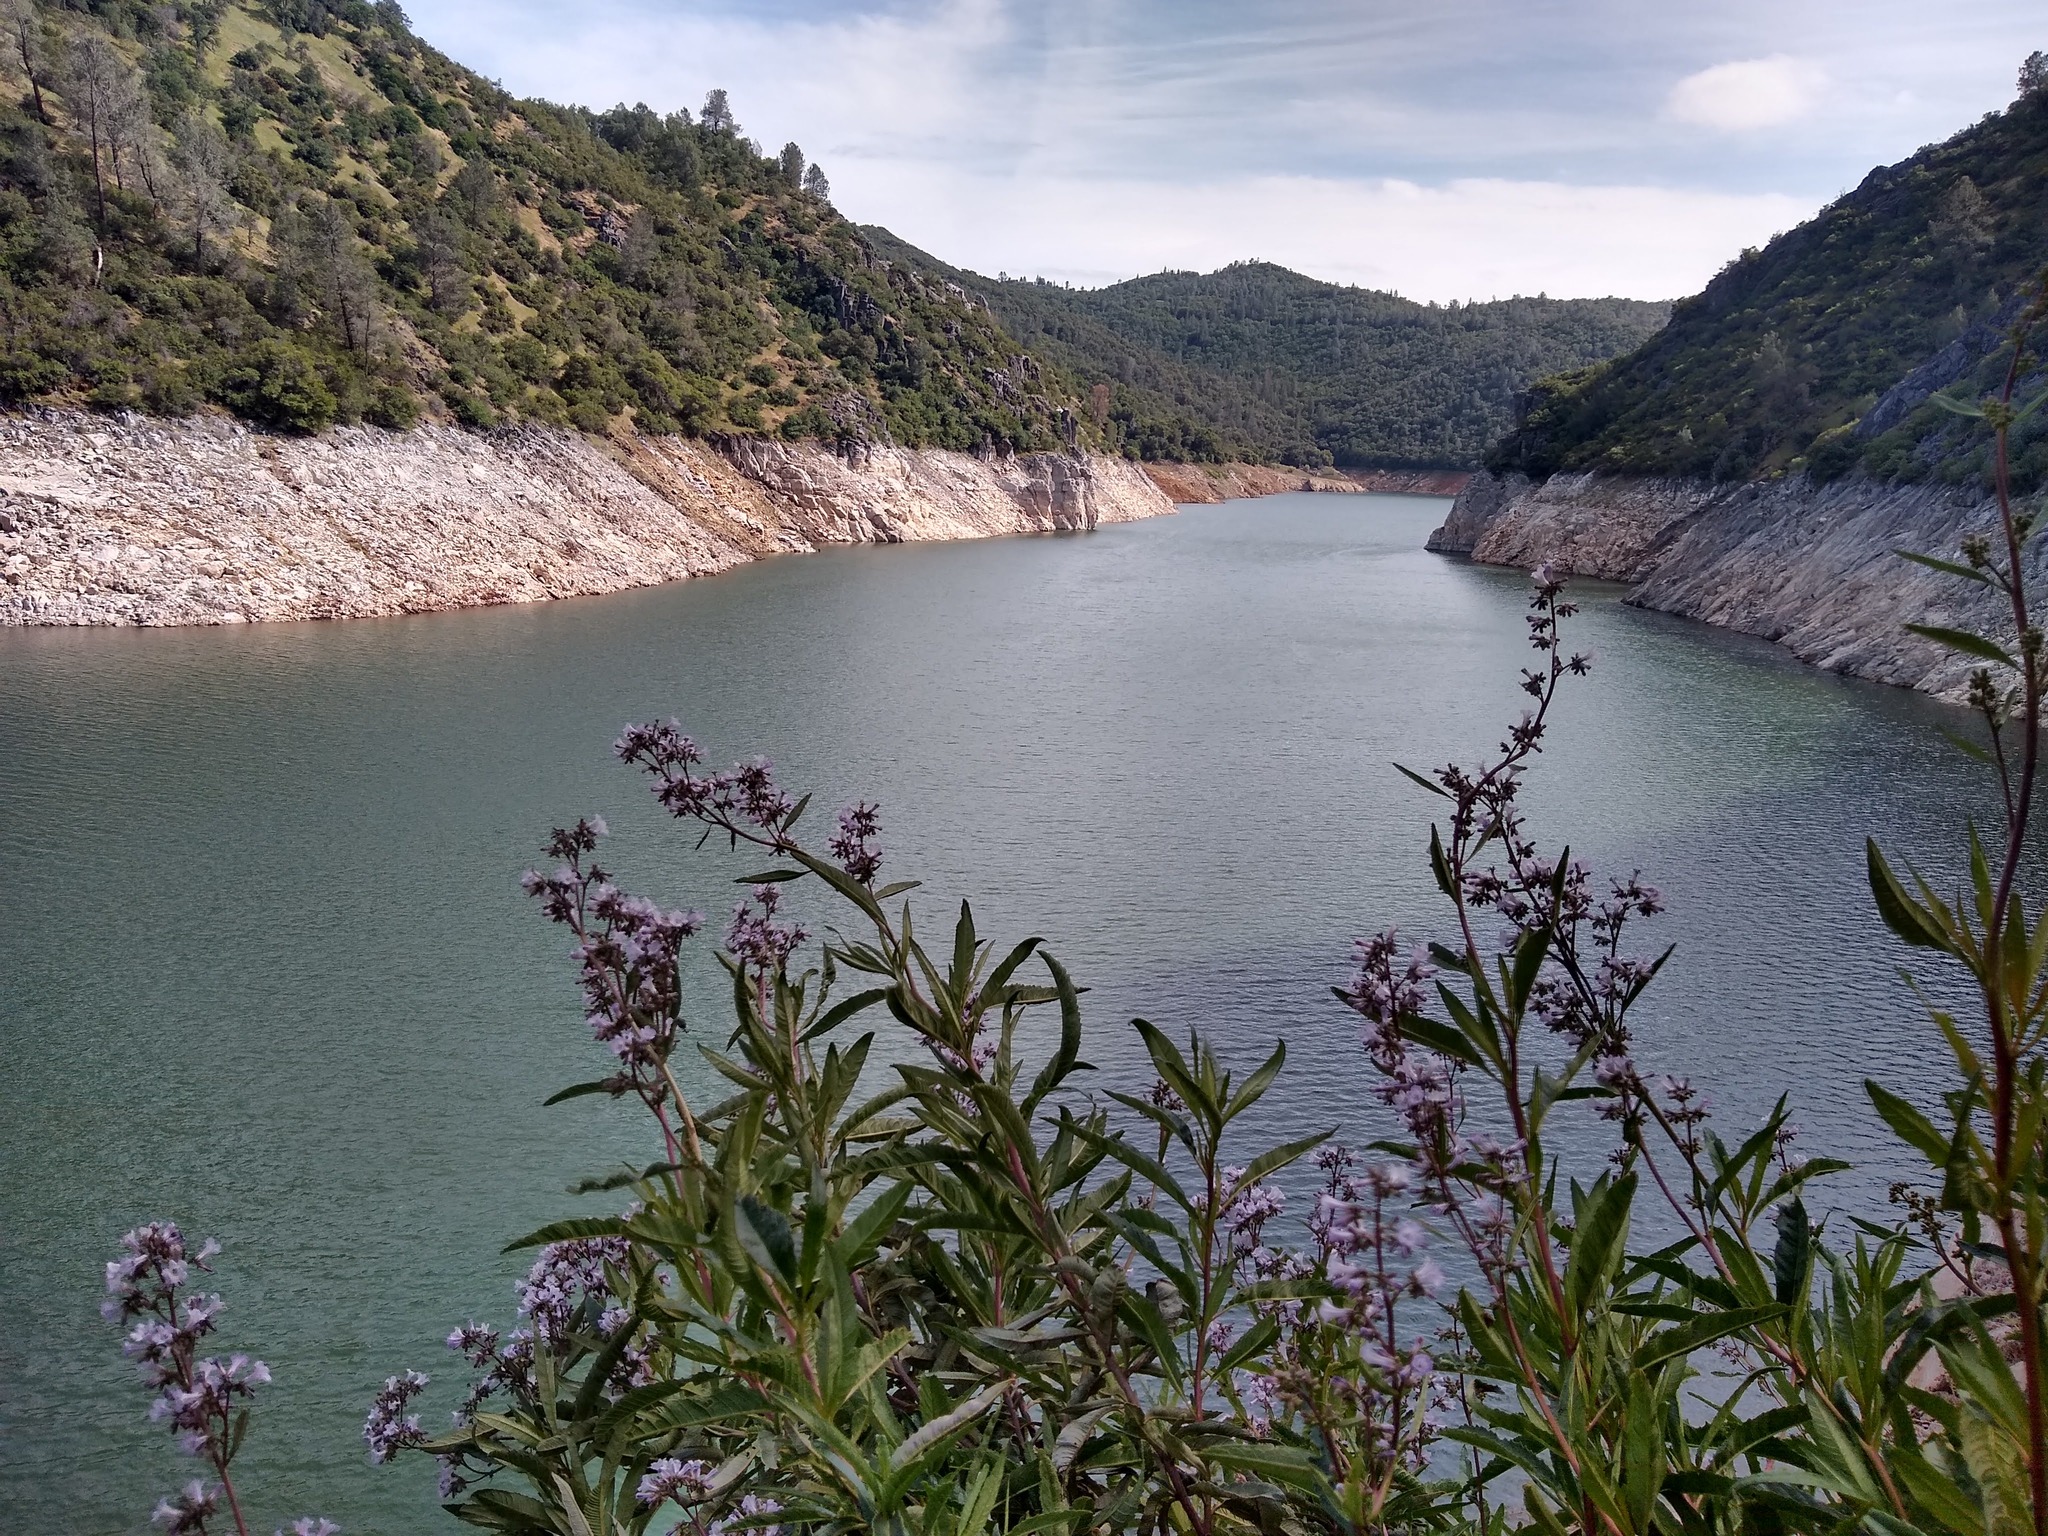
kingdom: Plantae
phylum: Tracheophyta
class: Magnoliopsida
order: Boraginales
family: Namaceae
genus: Eriodictyon
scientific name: Eriodictyon californicum
